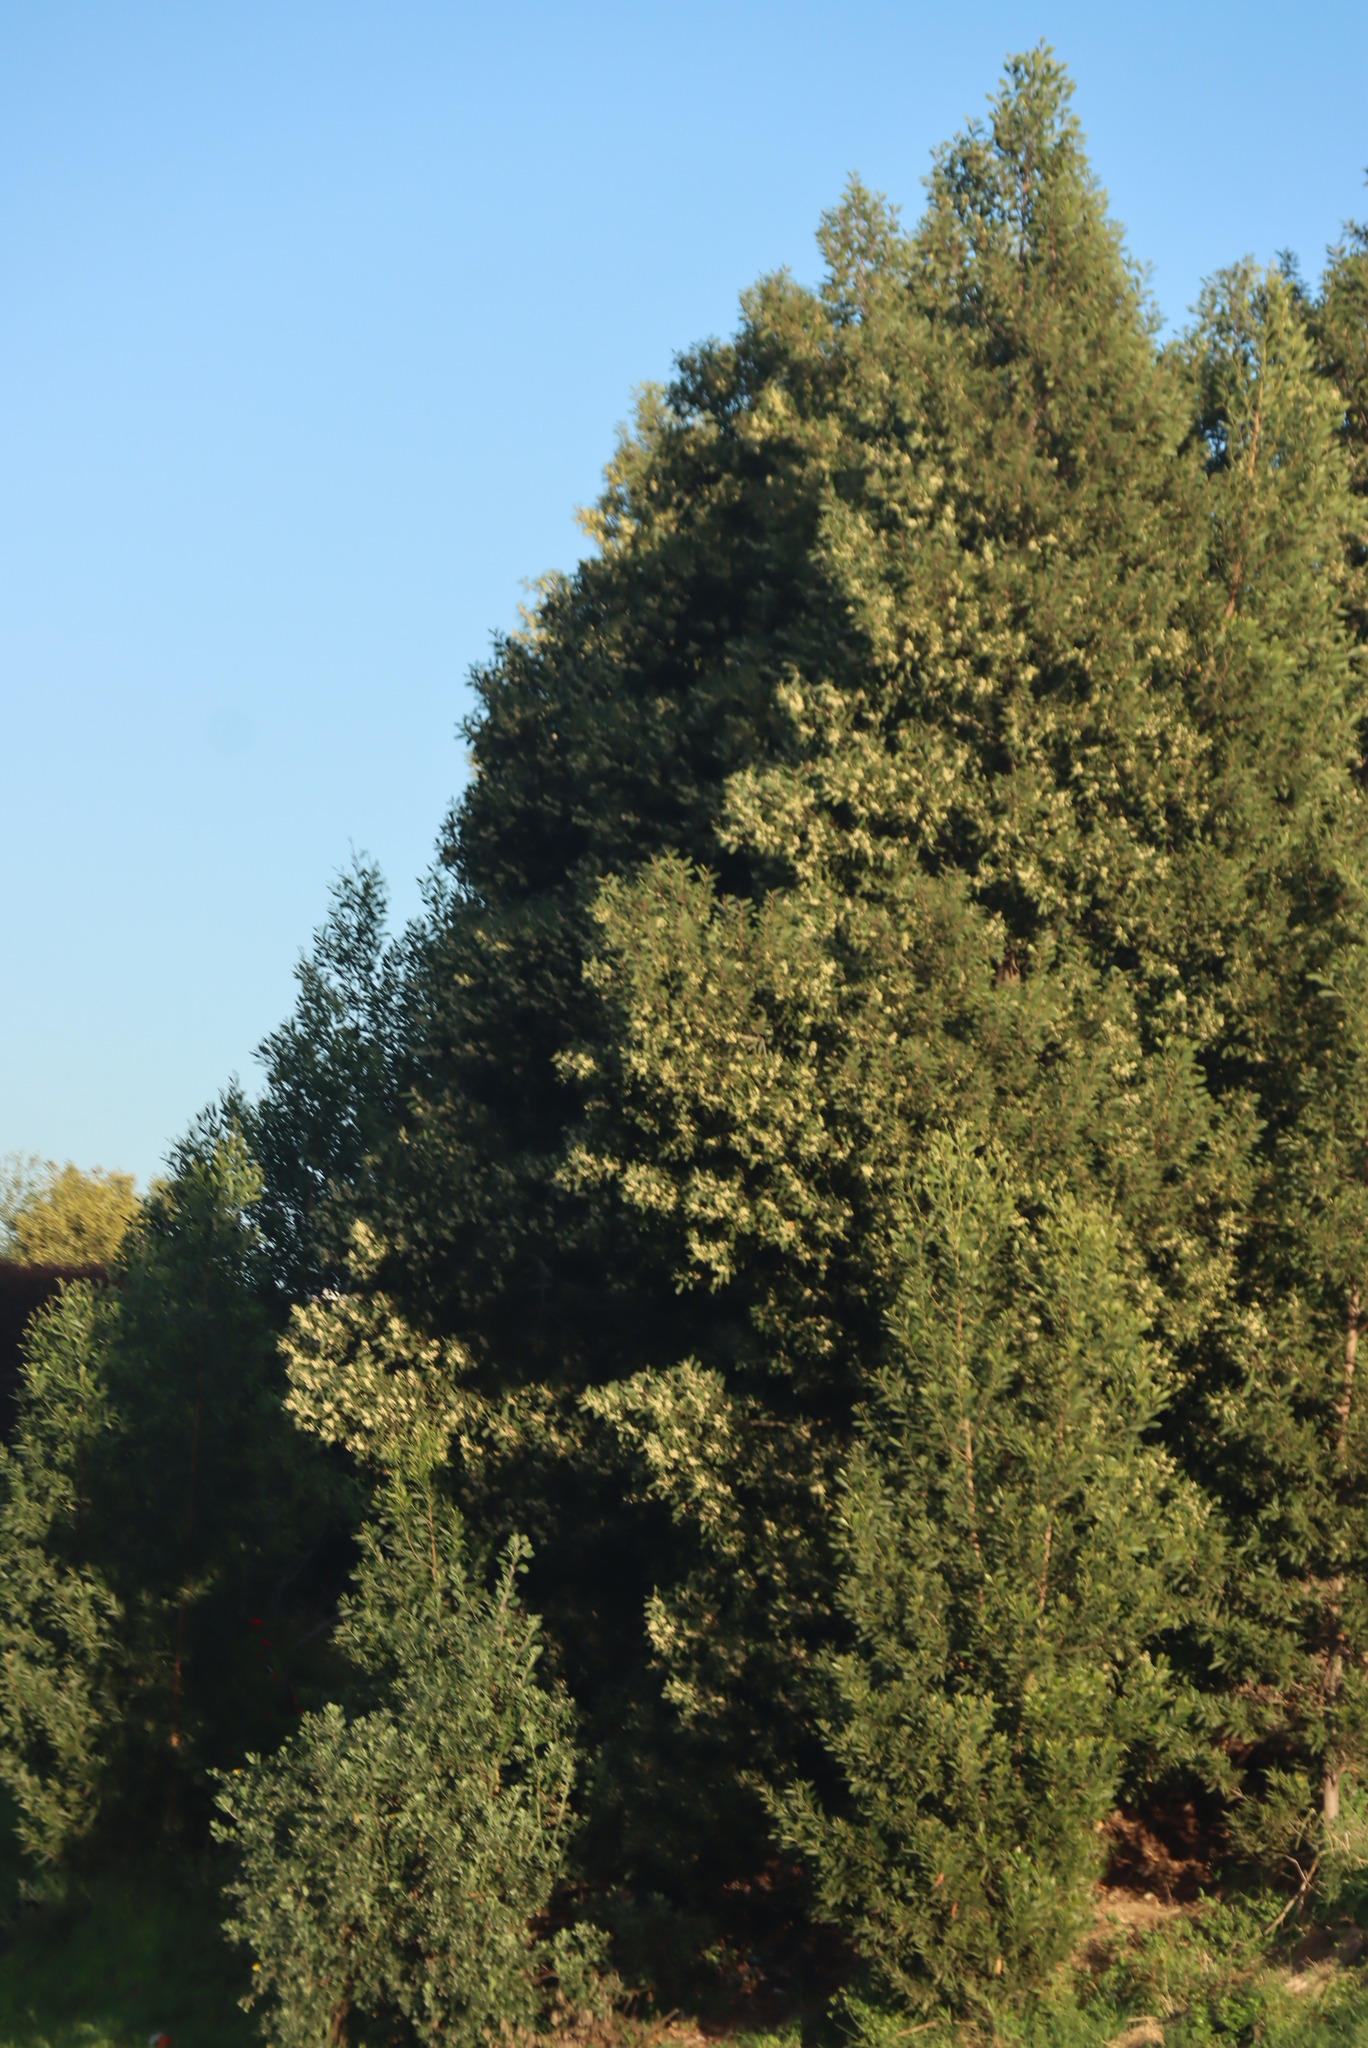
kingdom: Plantae
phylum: Tracheophyta
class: Magnoliopsida
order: Fabales
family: Fabaceae
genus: Acacia
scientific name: Acacia melanoxylon
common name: Blackwood
